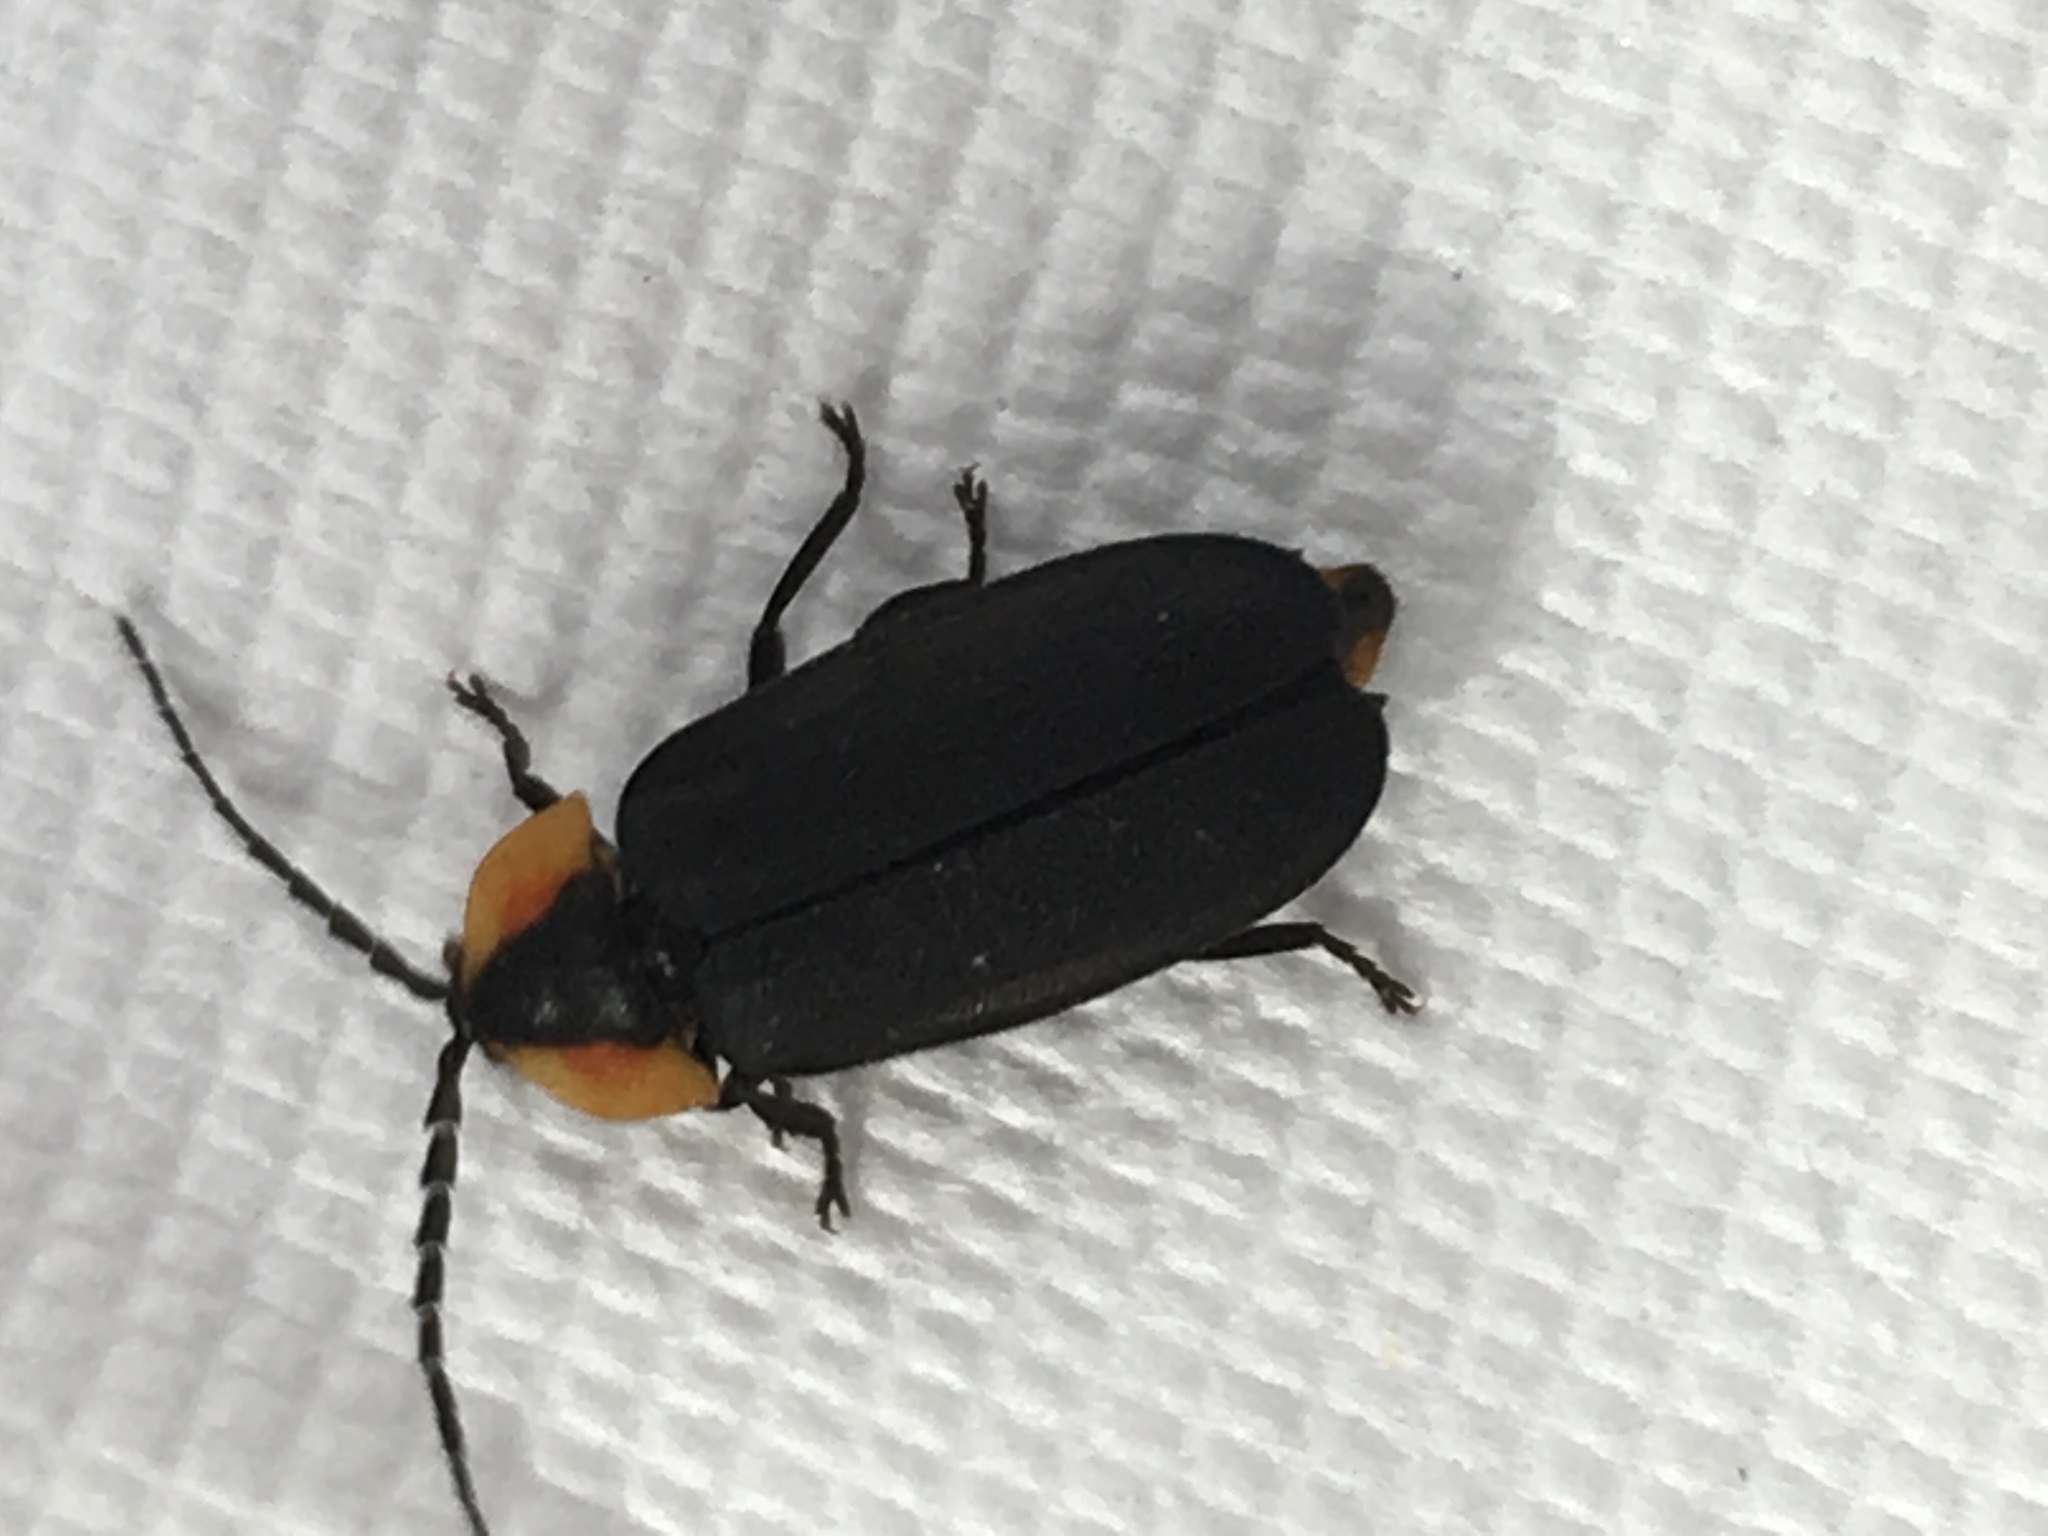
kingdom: Animalia
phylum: Arthropoda
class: Insecta
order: Coleoptera
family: Lampyridae
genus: Lucidota
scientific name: Lucidota atra
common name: Black firefly
